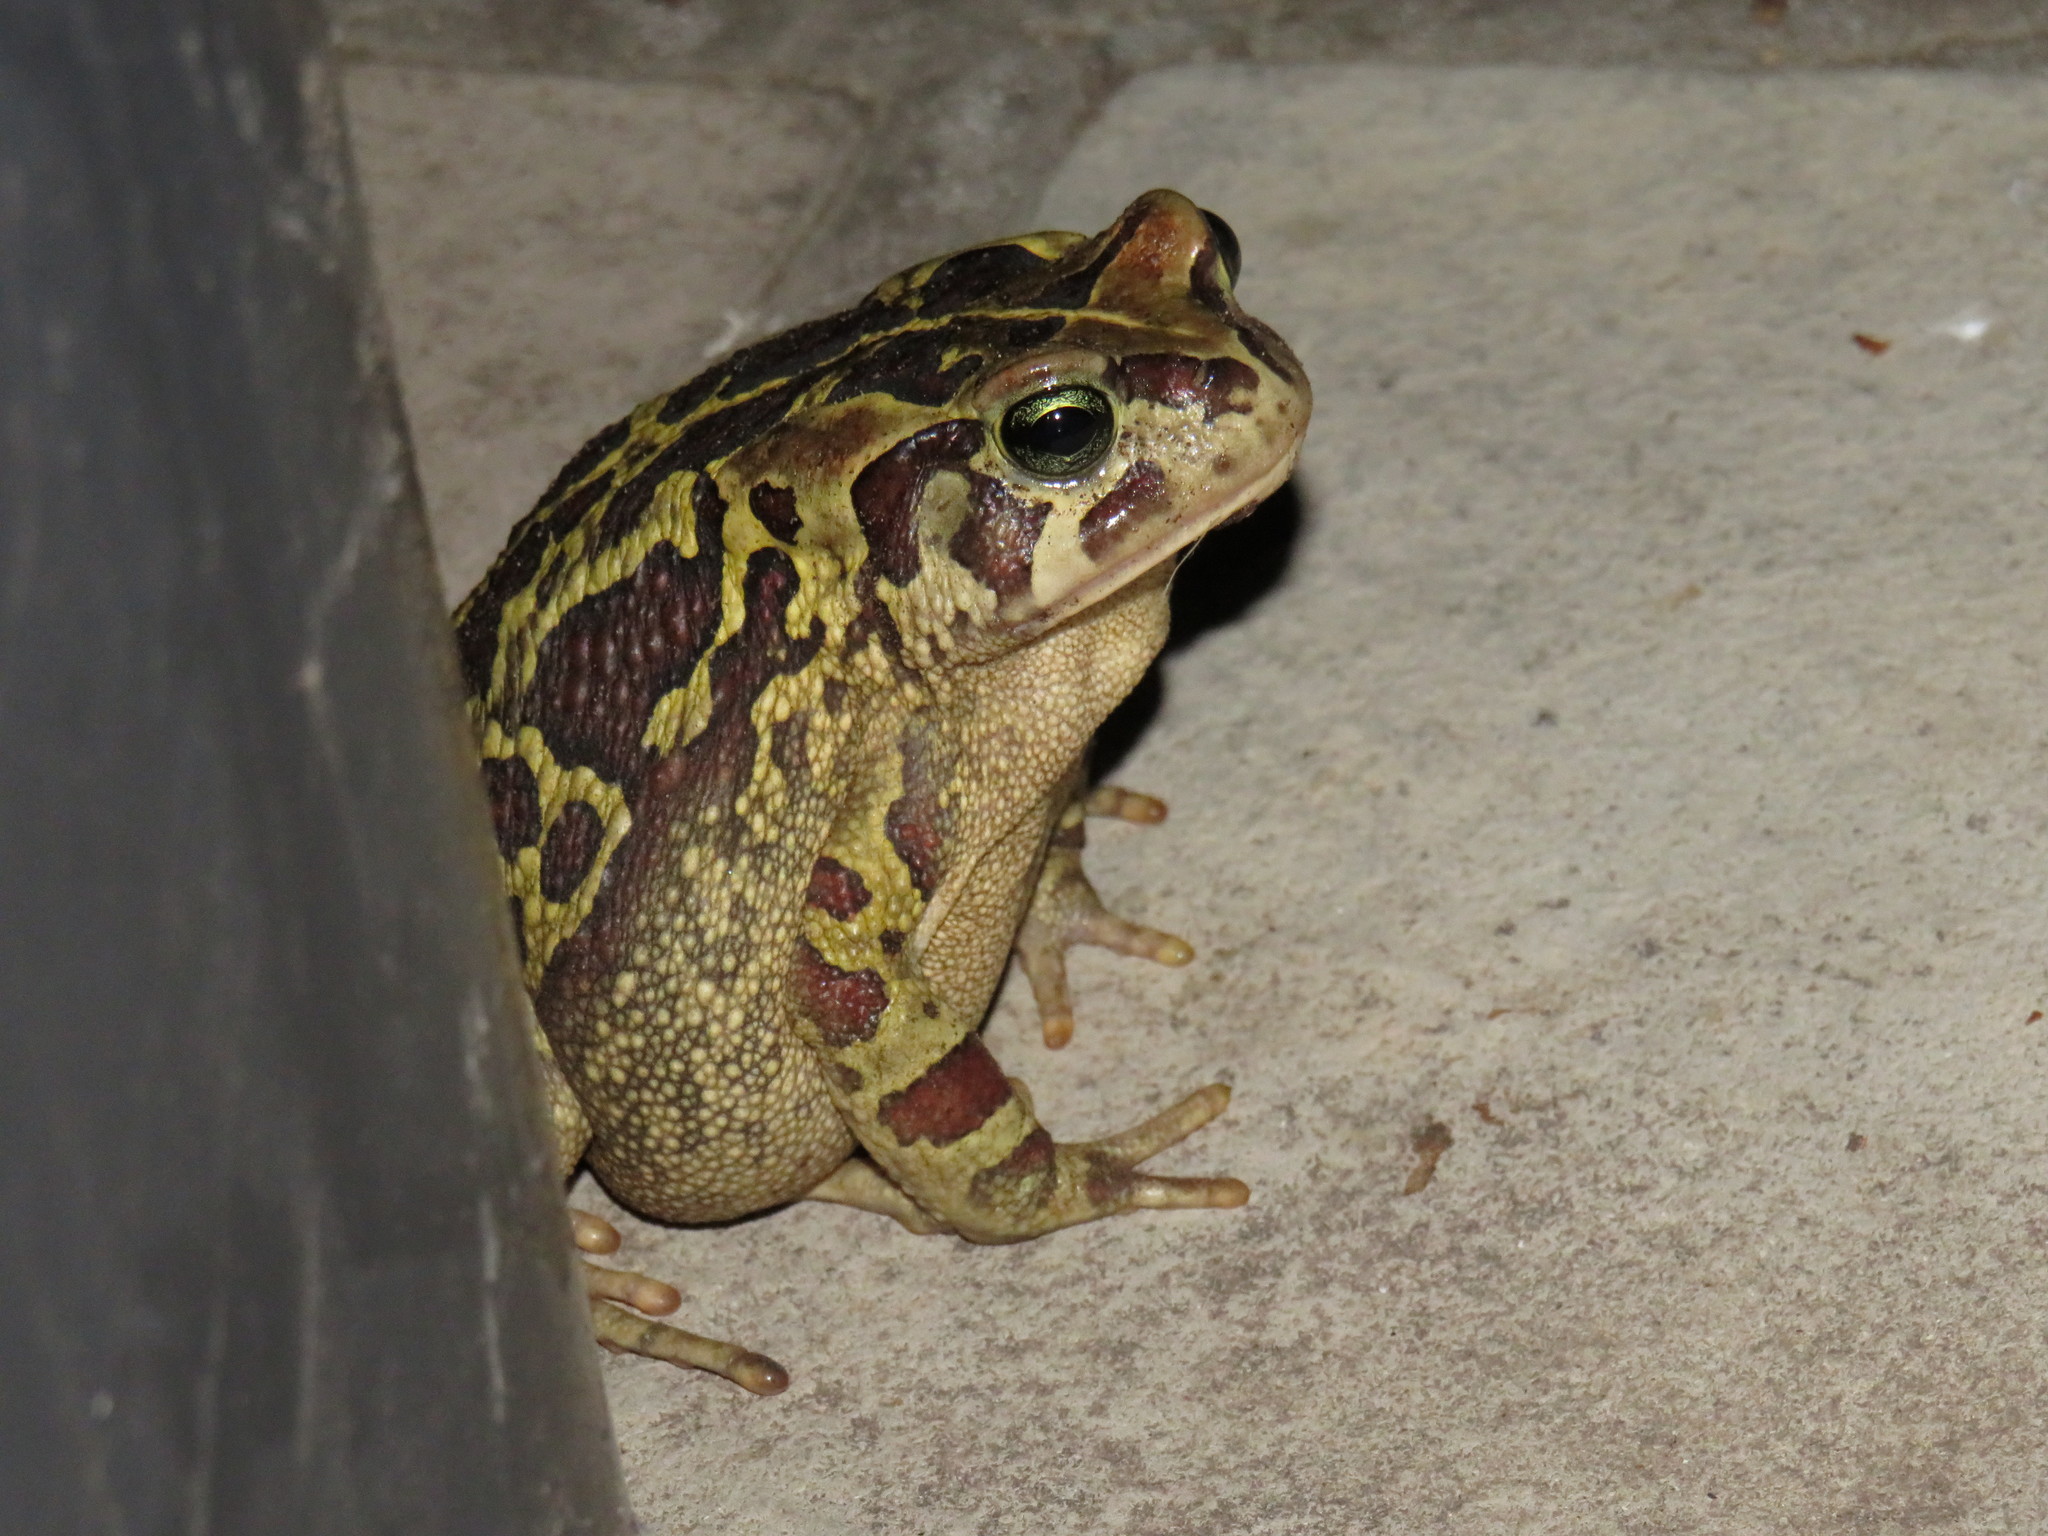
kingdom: Animalia
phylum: Chordata
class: Amphibia
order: Anura
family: Bufonidae
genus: Sclerophrys
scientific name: Sclerophrys pantherina
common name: Panther toad
